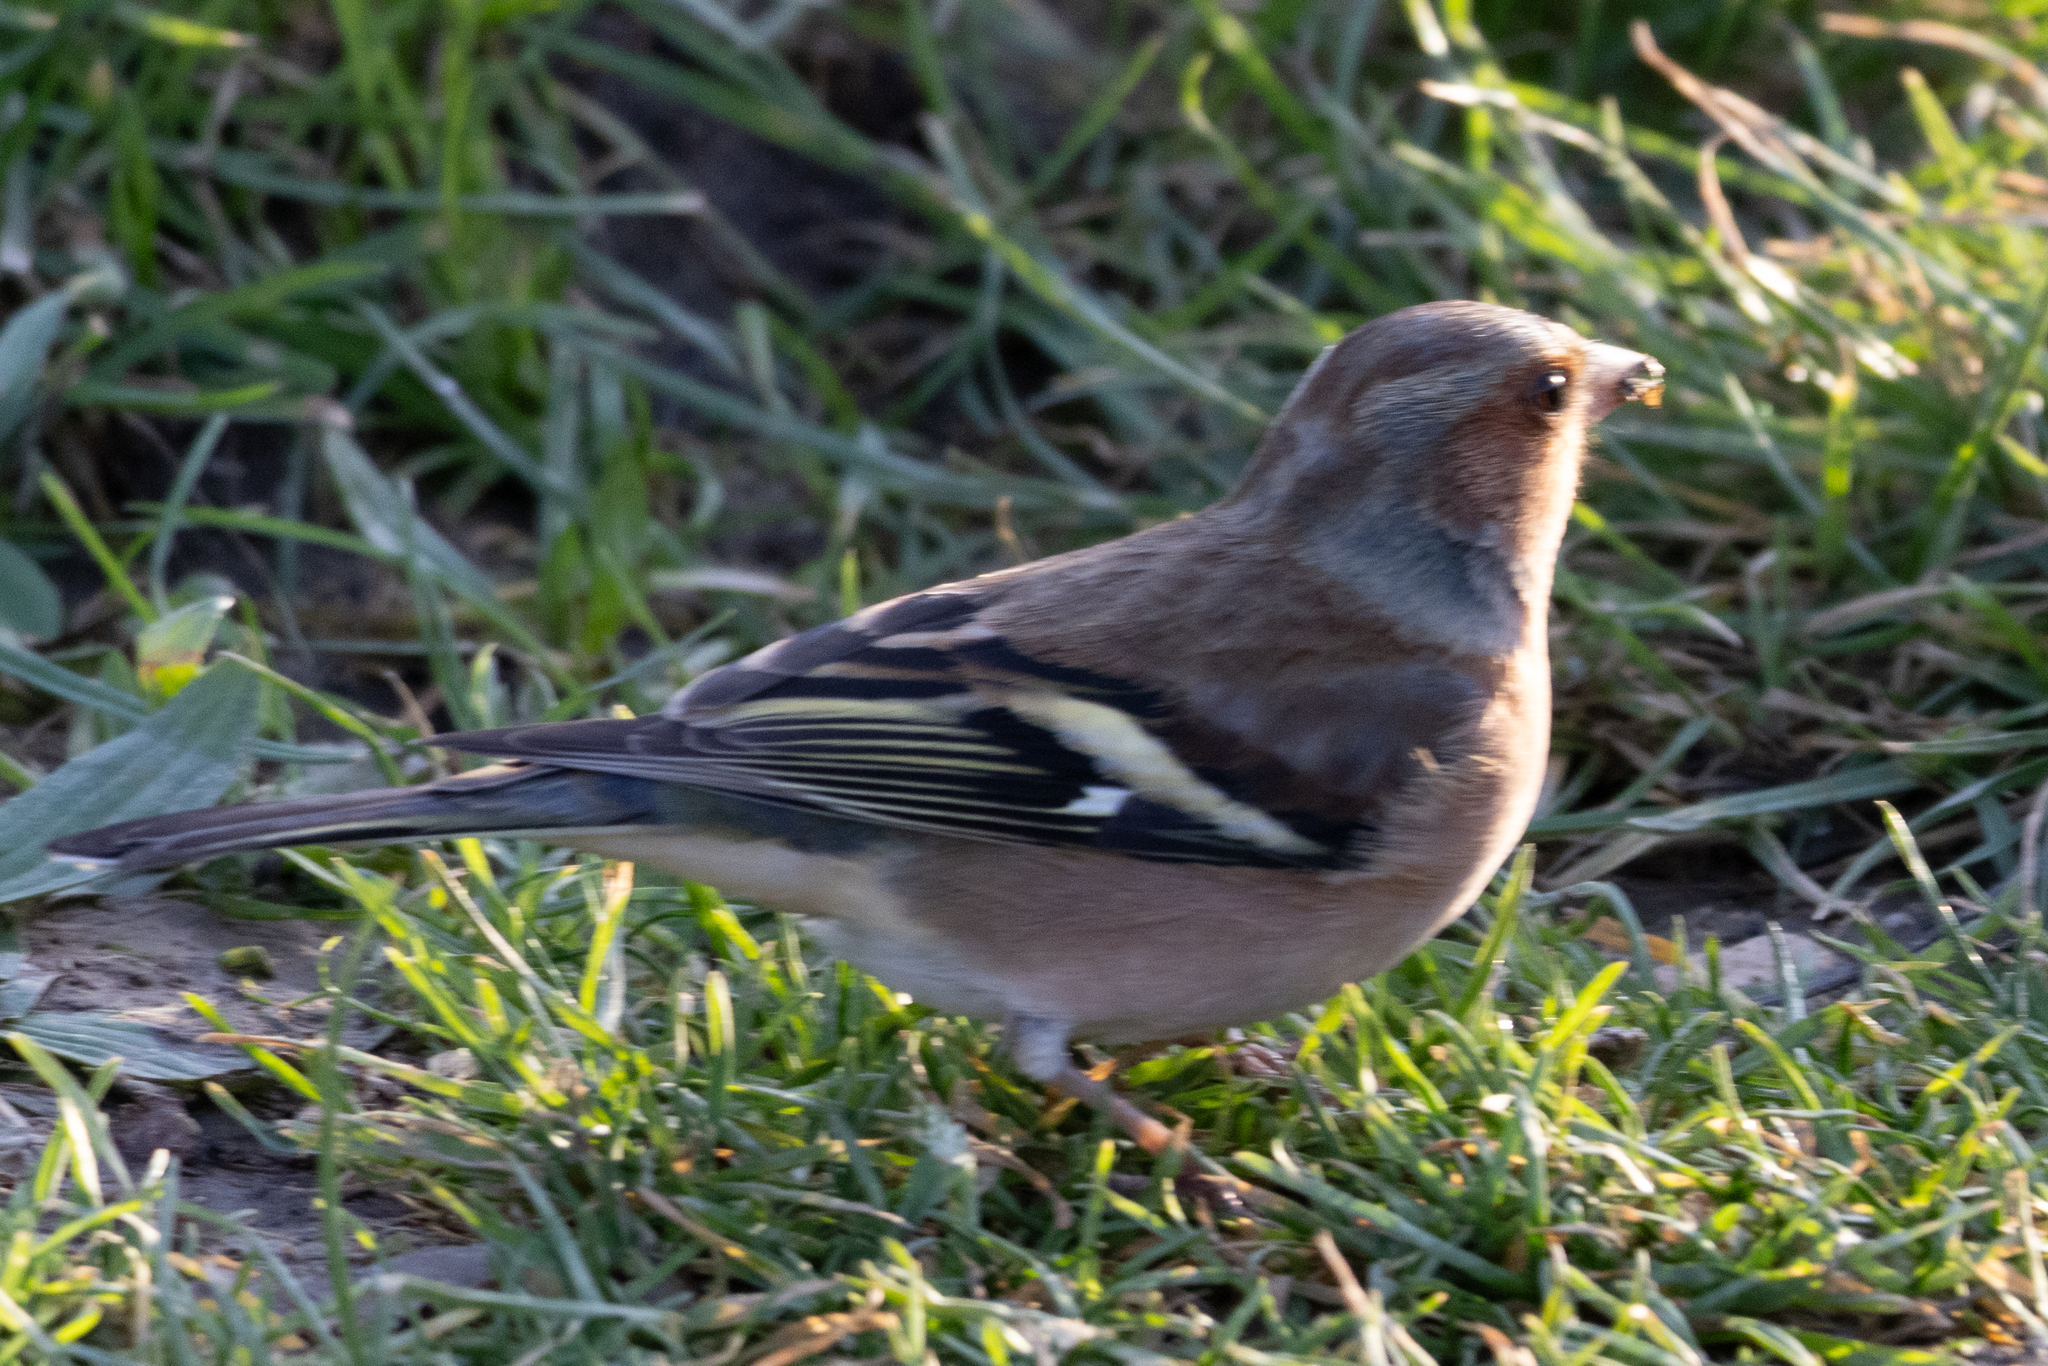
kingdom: Animalia
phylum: Chordata
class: Aves
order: Passeriformes
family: Fringillidae
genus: Fringilla
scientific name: Fringilla coelebs
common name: Common chaffinch
